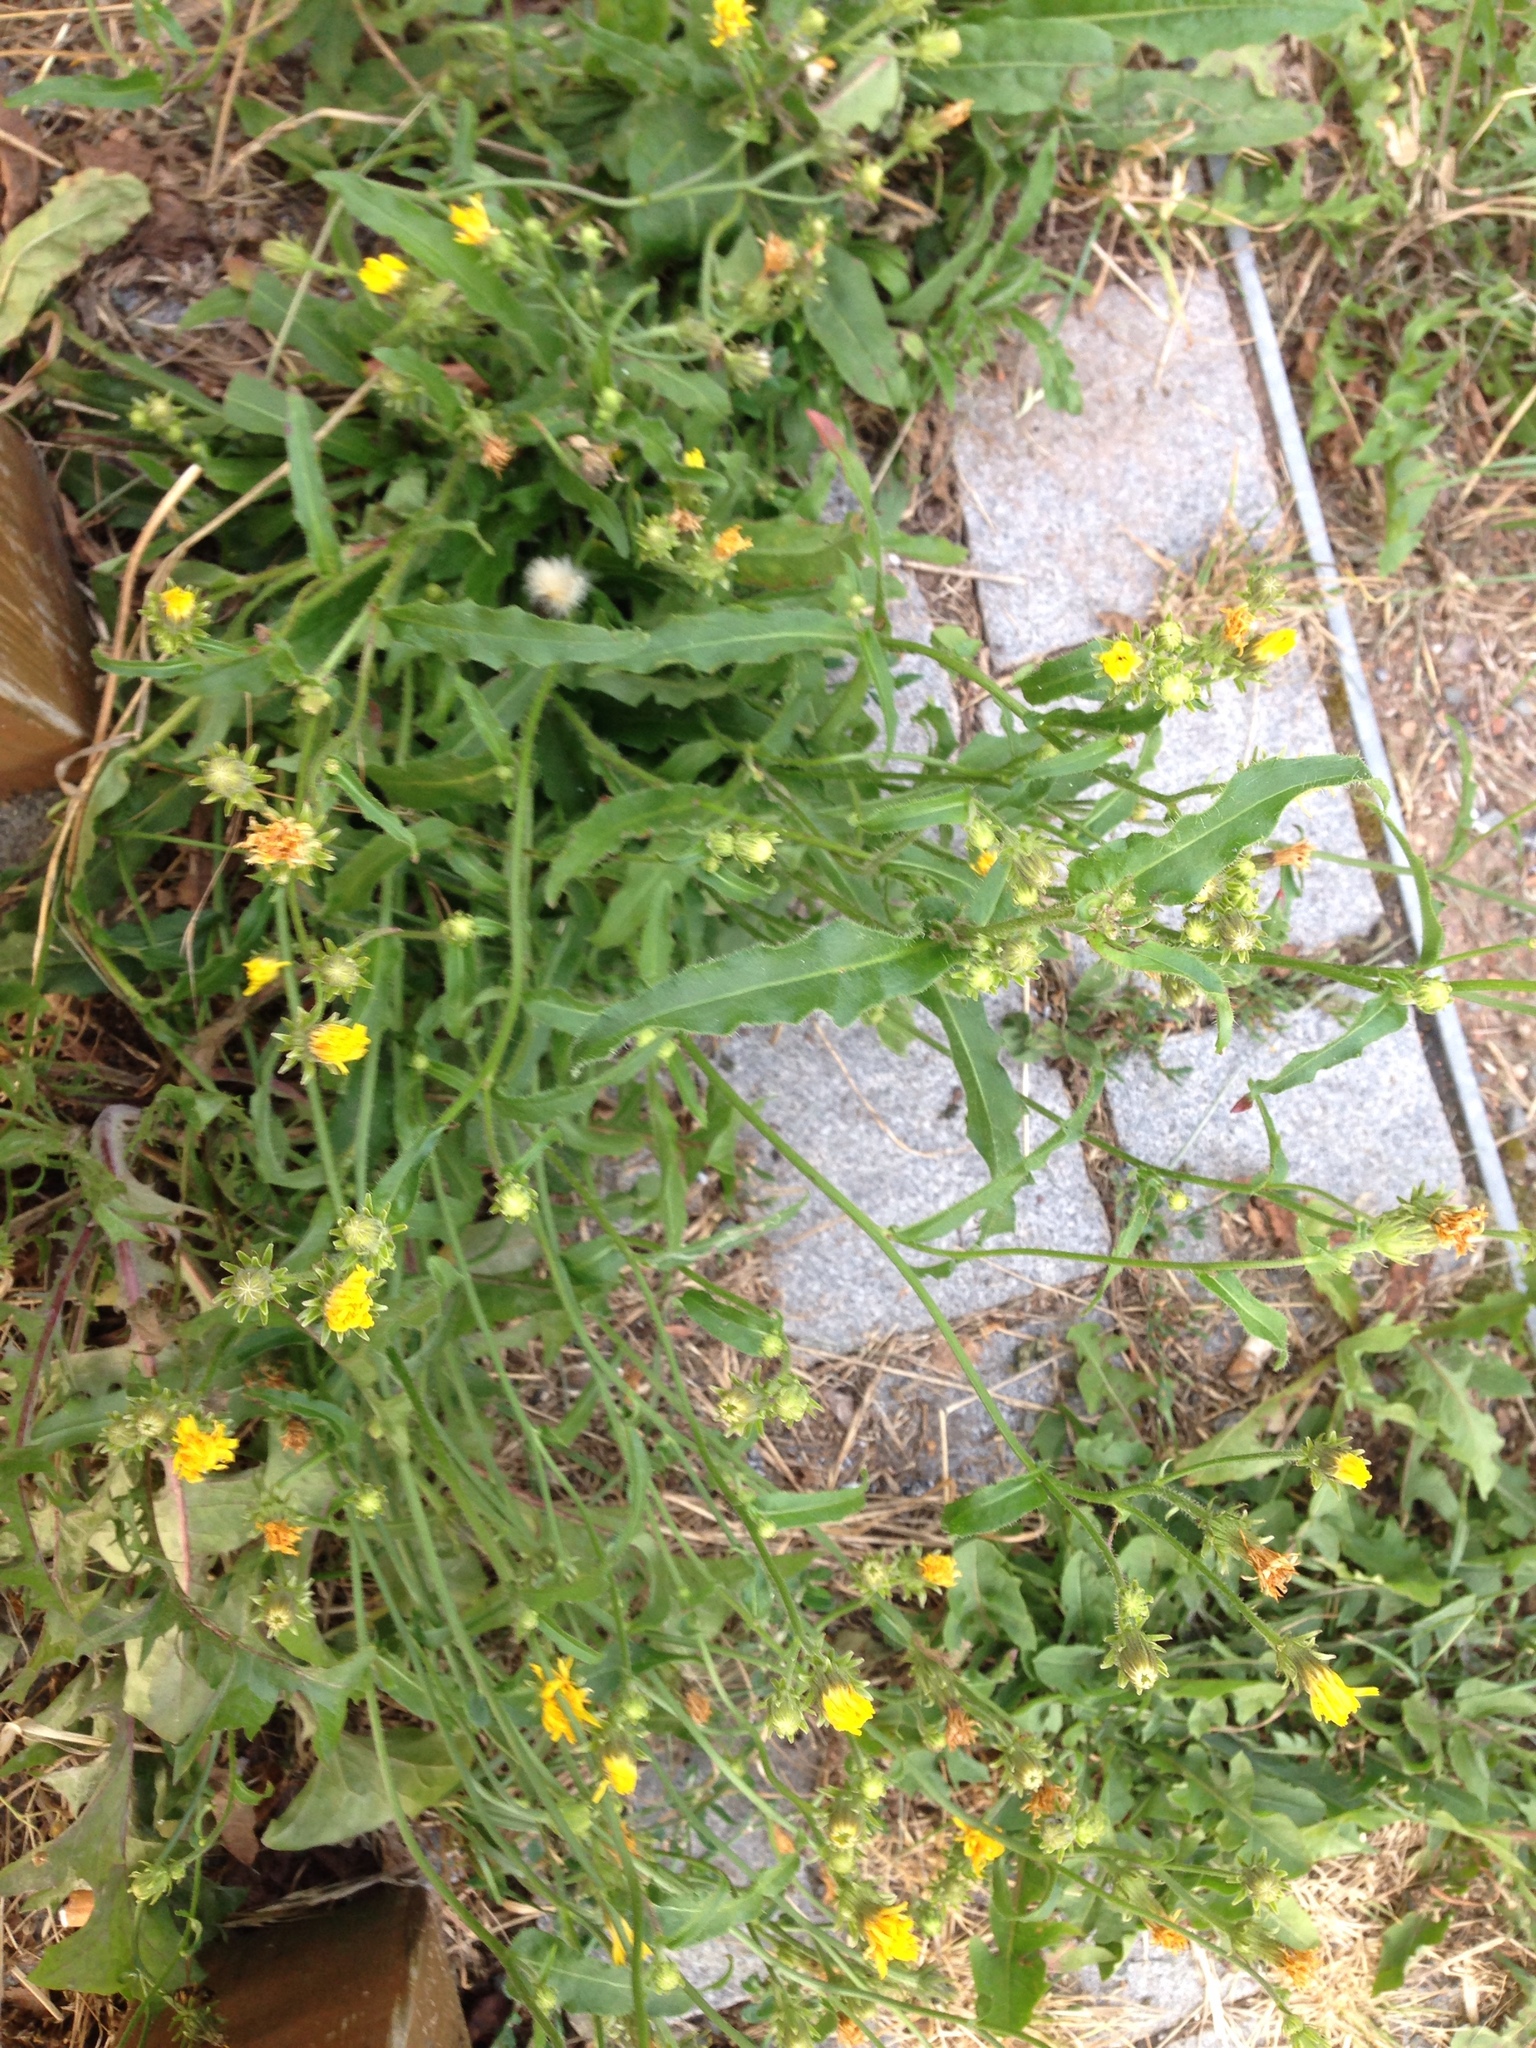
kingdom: Plantae
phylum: Tracheophyta
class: Magnoliopsida
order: Asterales
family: Asteraceae
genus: Picris
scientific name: Picris hieracioides
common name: Hawkweed oxtongue
